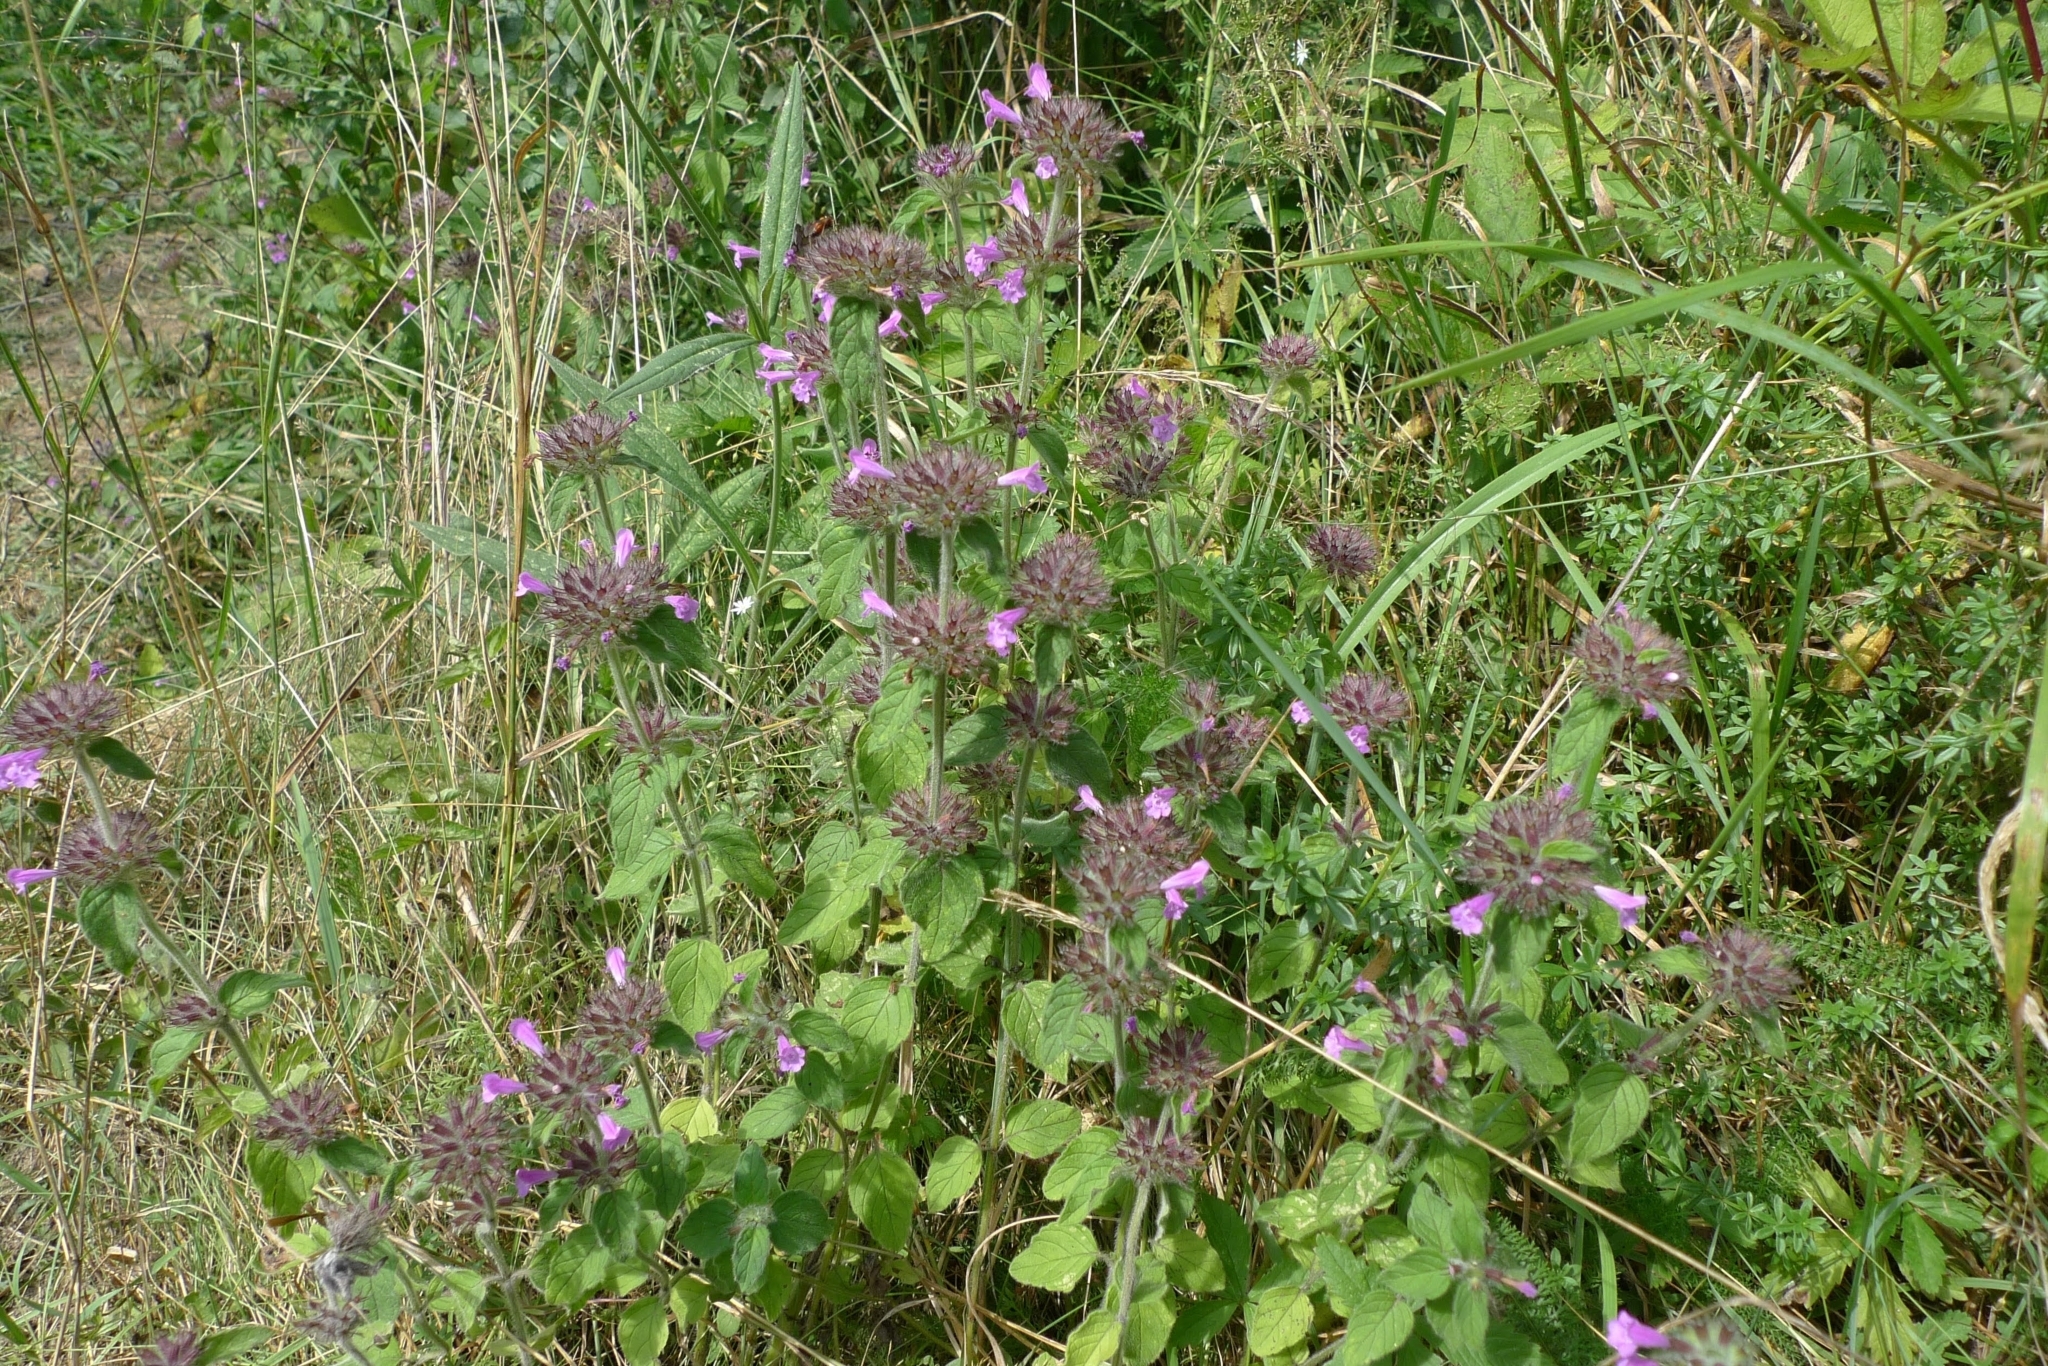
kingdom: Plantae
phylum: Tracheophyta
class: Magnoliopsida
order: Lamiales
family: Lamiaceae
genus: Clinopodium
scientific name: Clinopodium vulgare
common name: Wild basil
